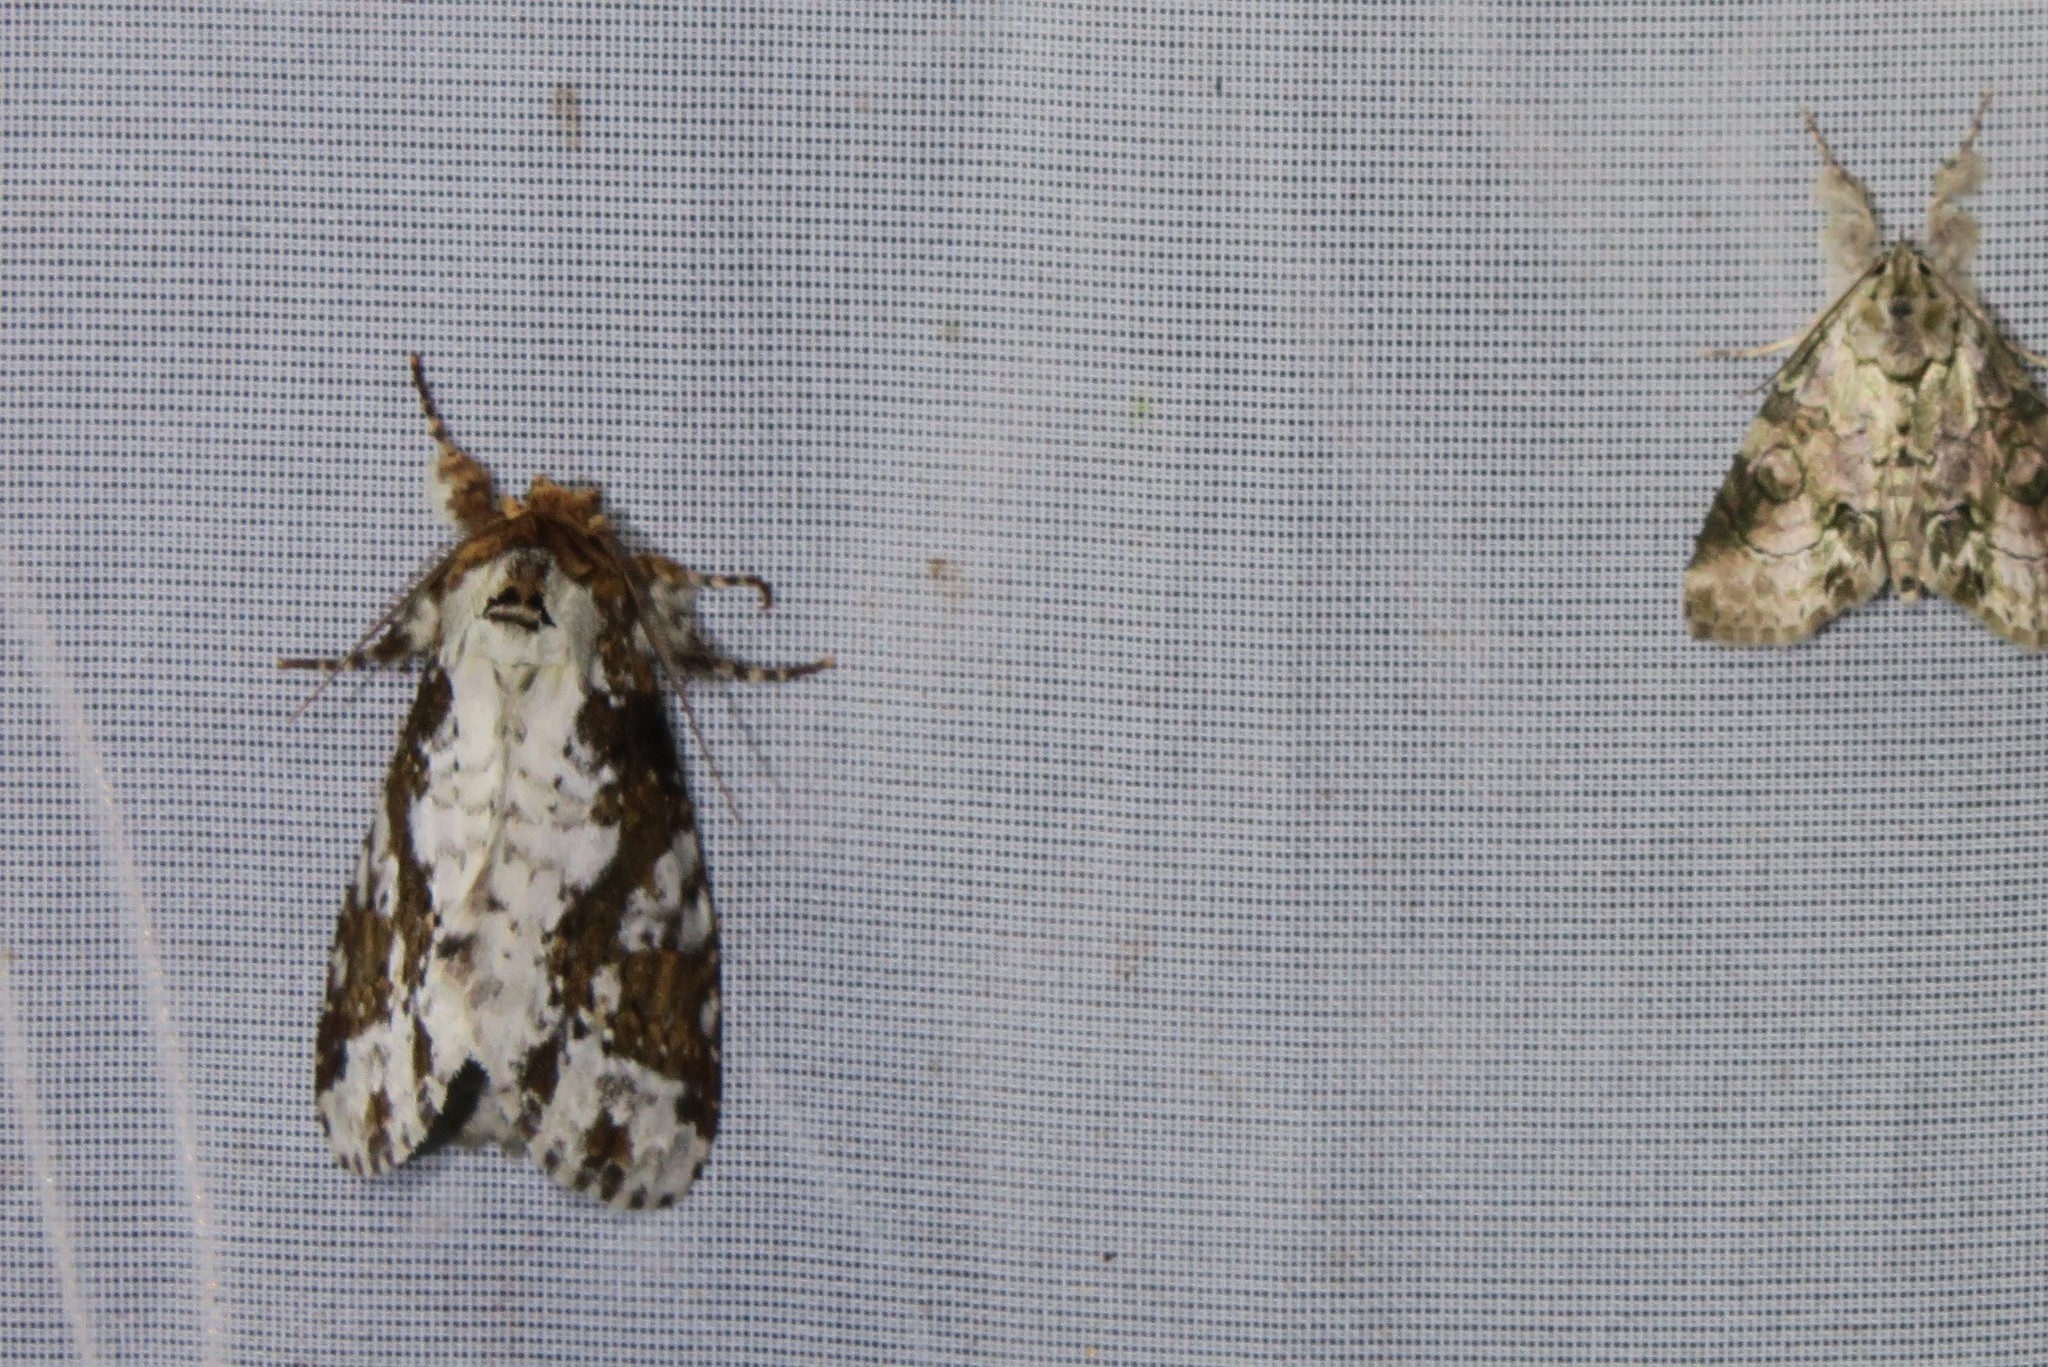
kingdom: Animalia
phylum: Arthropoda
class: Insecta
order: Lepidoptera
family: Notodontidae
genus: Disphragis
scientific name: Disphragis tharis
